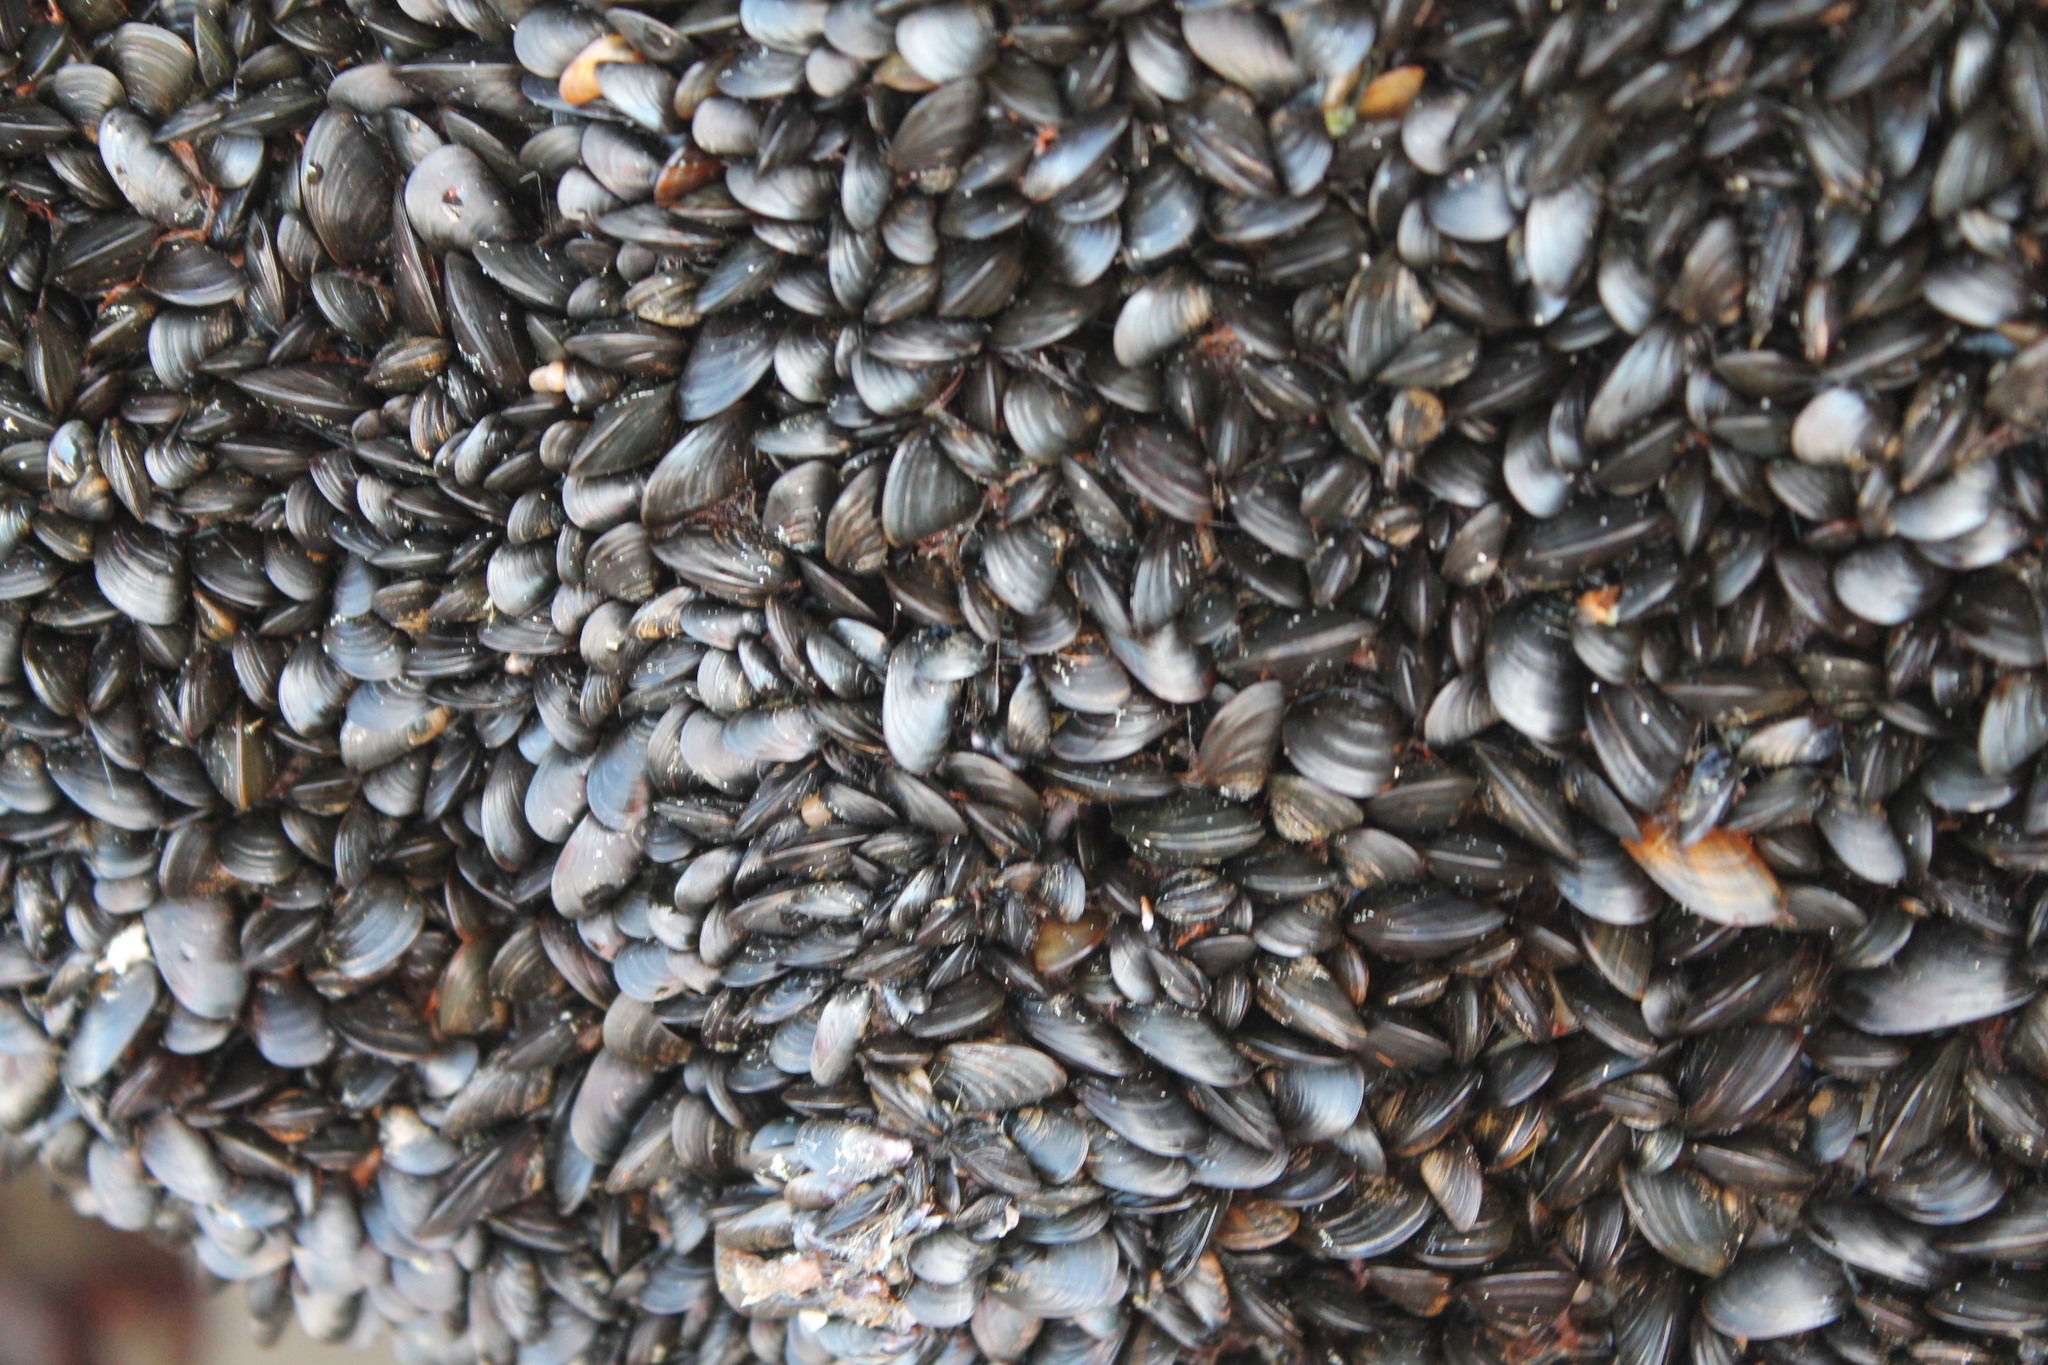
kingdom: Animalia
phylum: Mollusca
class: Bivalvia
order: Mytilida
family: Mytilidae
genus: Mytilus
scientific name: Mytilus edulis
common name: Blue mussel
